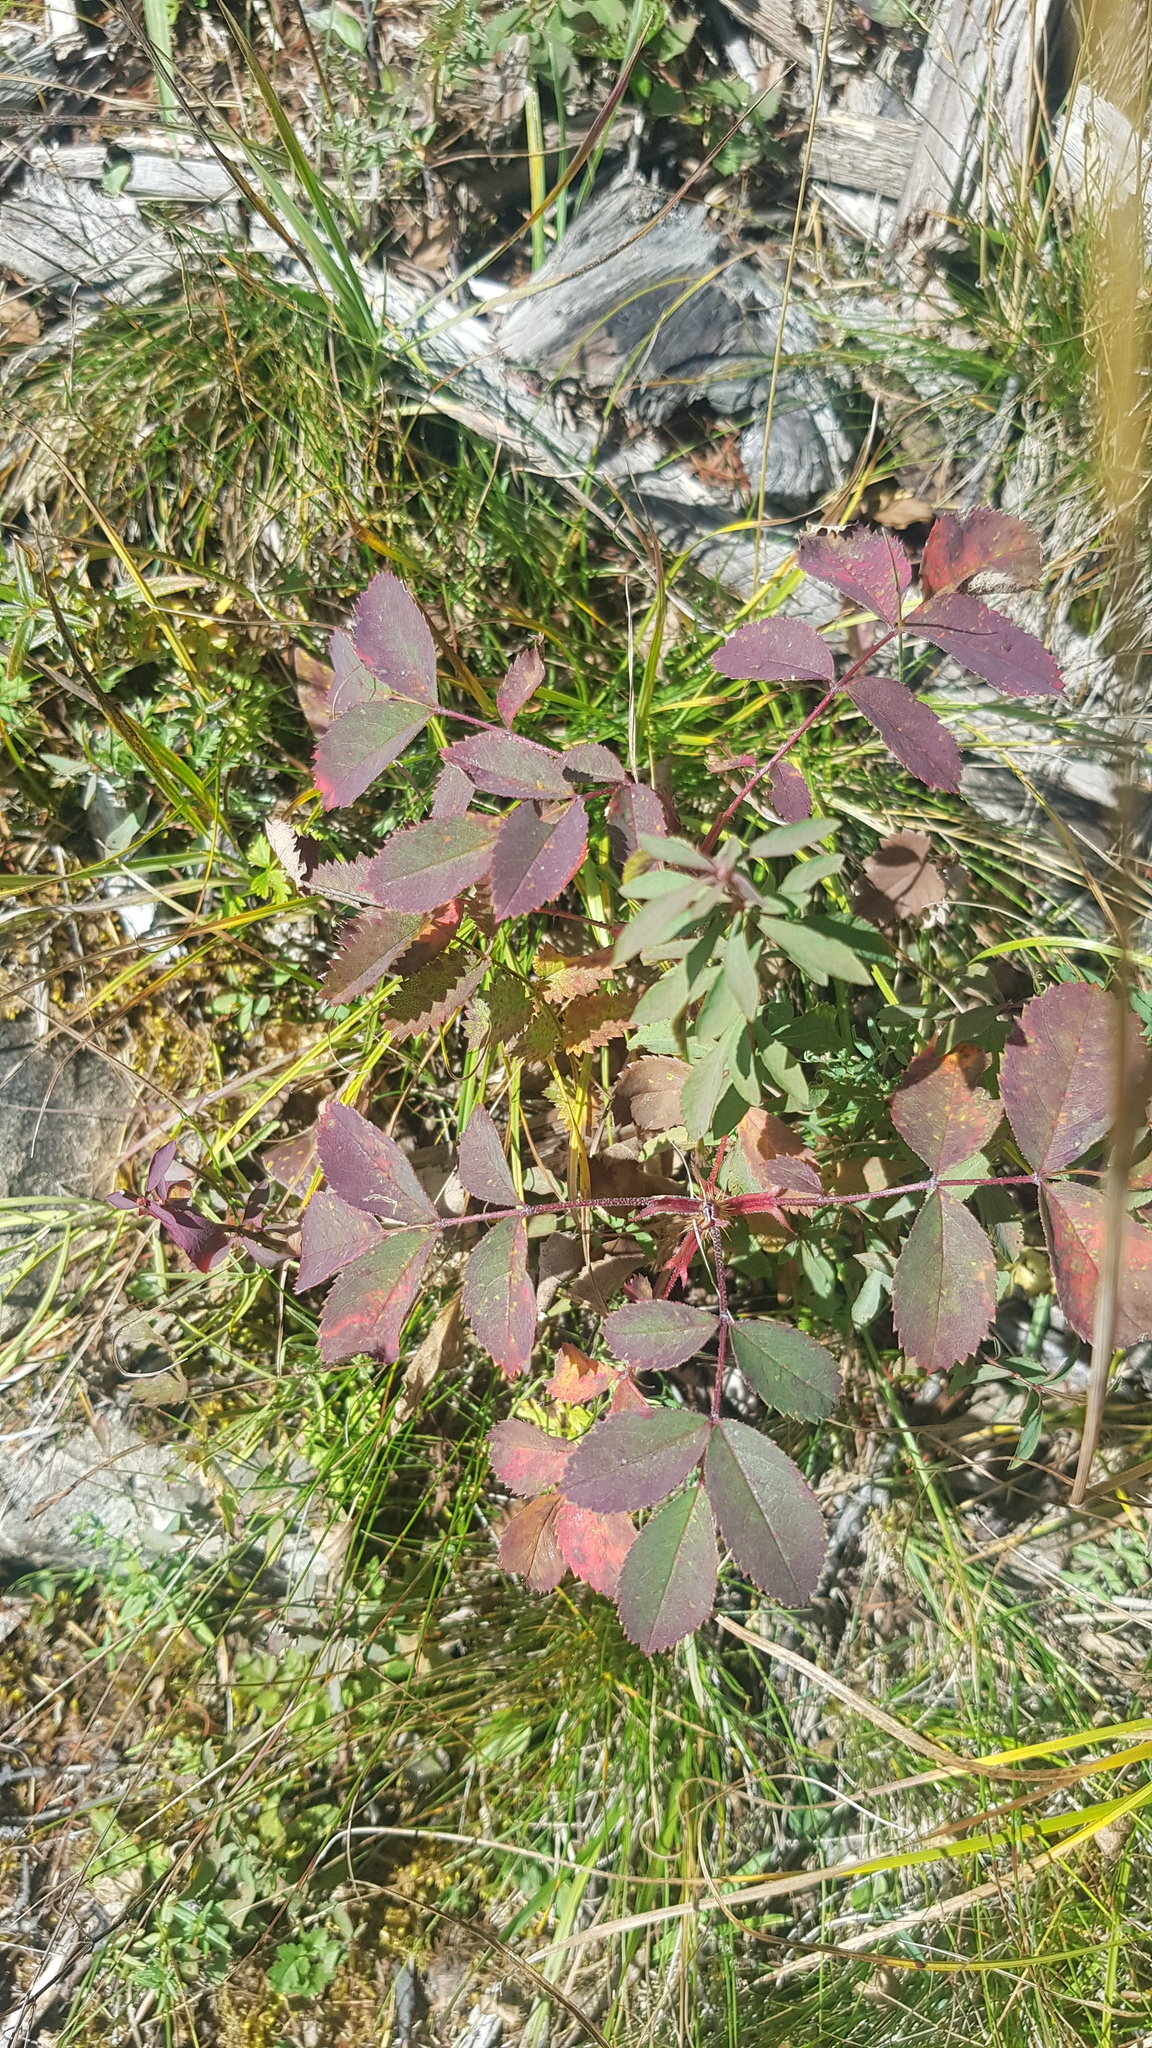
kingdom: Plantae
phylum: Tracheophyta
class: Magnoliopsida
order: Rosales
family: Rosaceae
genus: Rosa
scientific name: Rosa acicularis
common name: Prickly rose
